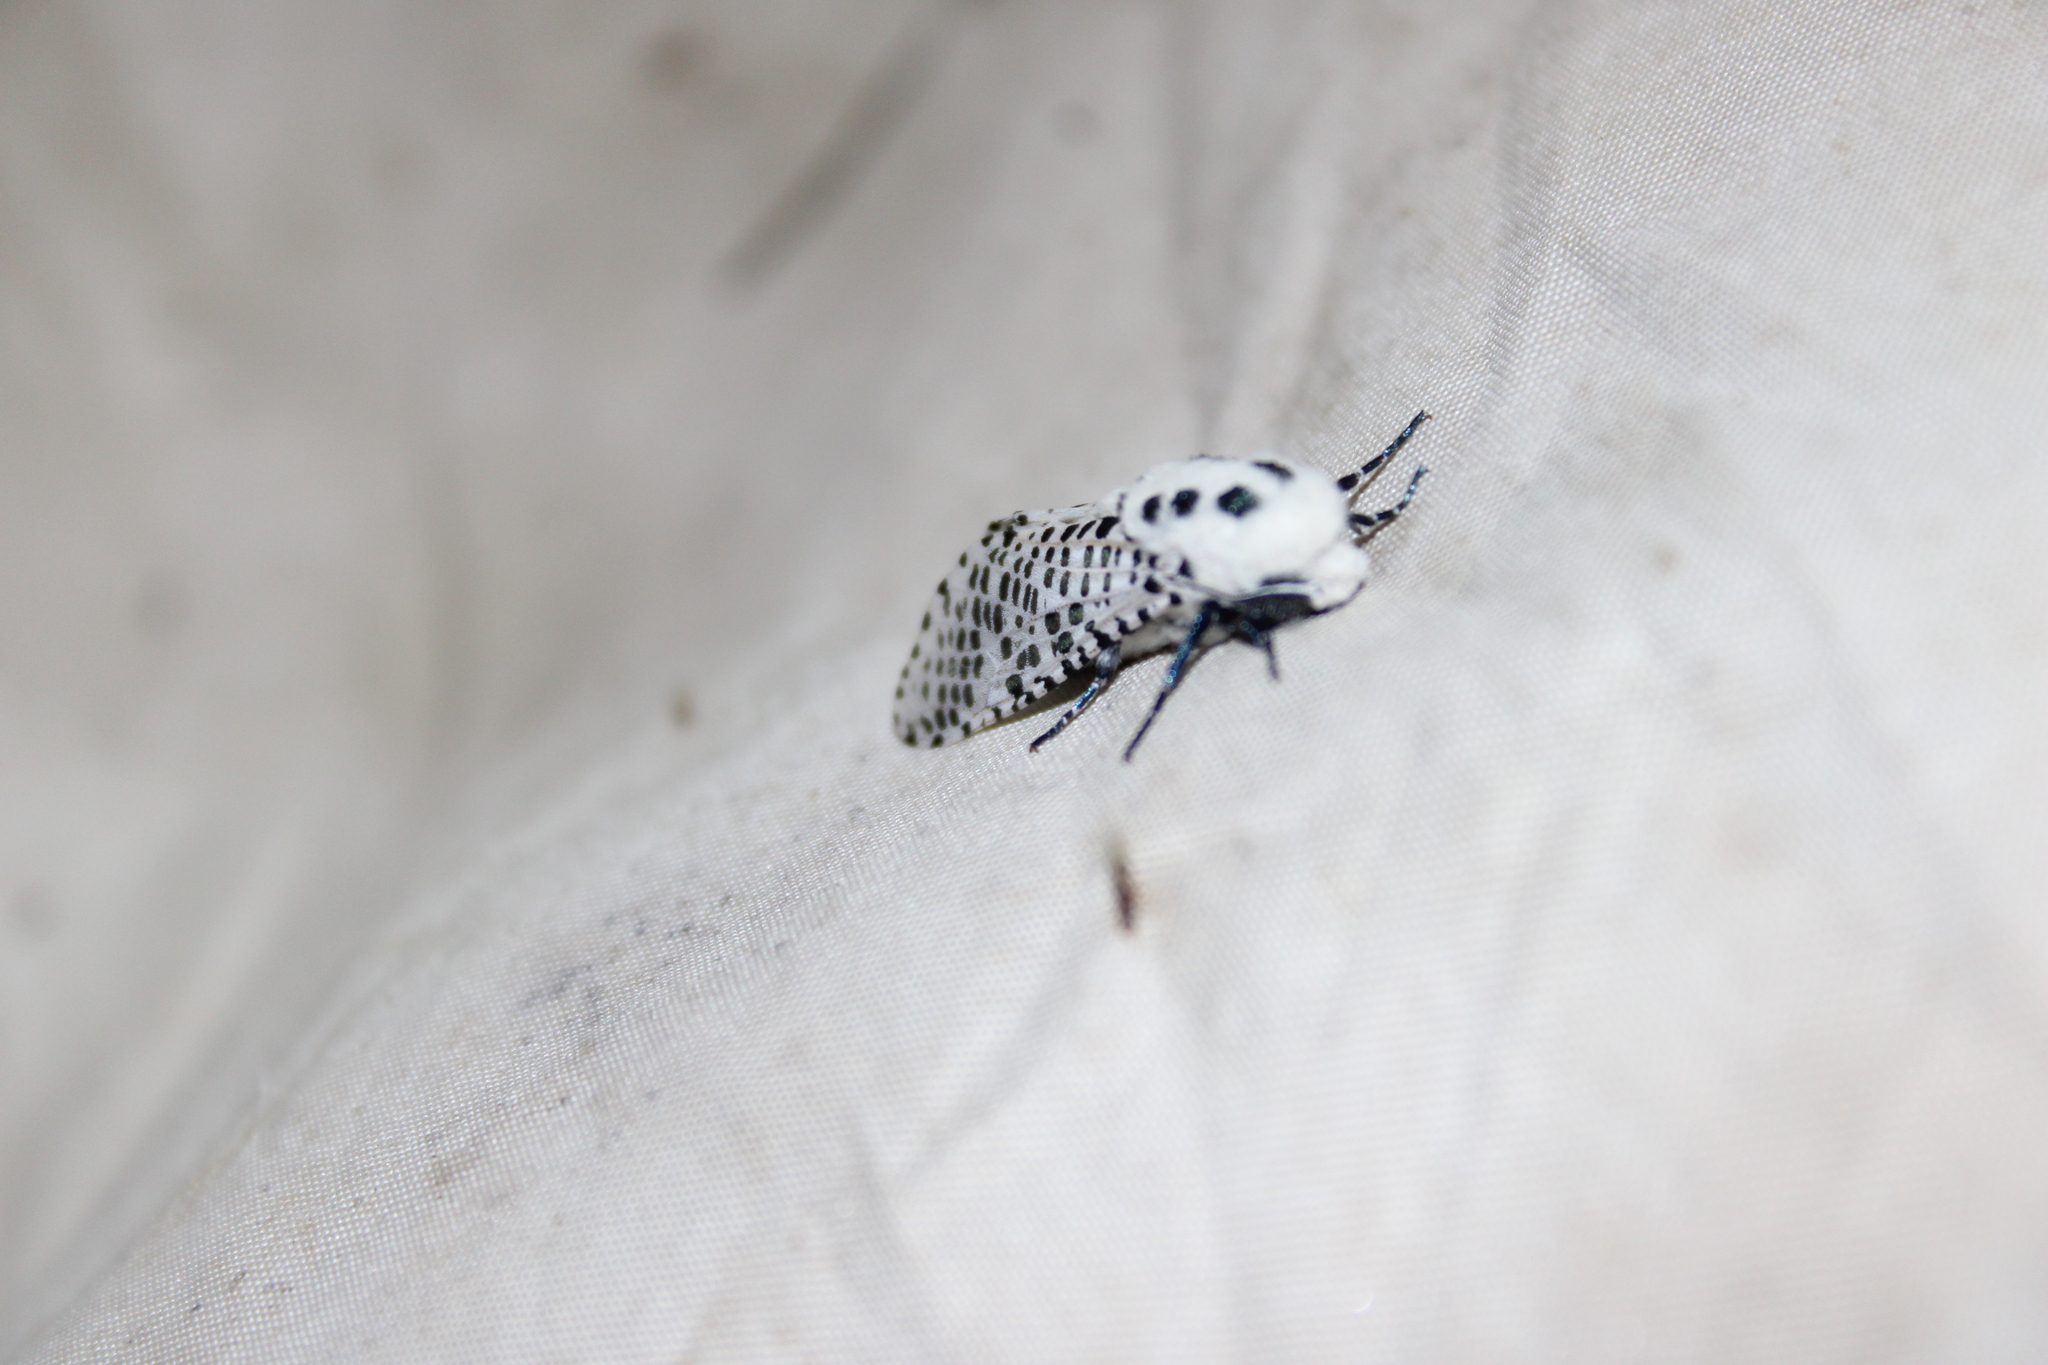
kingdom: Animalia
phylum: Arthropoda
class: Insecta
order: Lepidoptera
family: Cossidae
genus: Zeuzera
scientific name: Zeuzera pyrina
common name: Leopard moth
